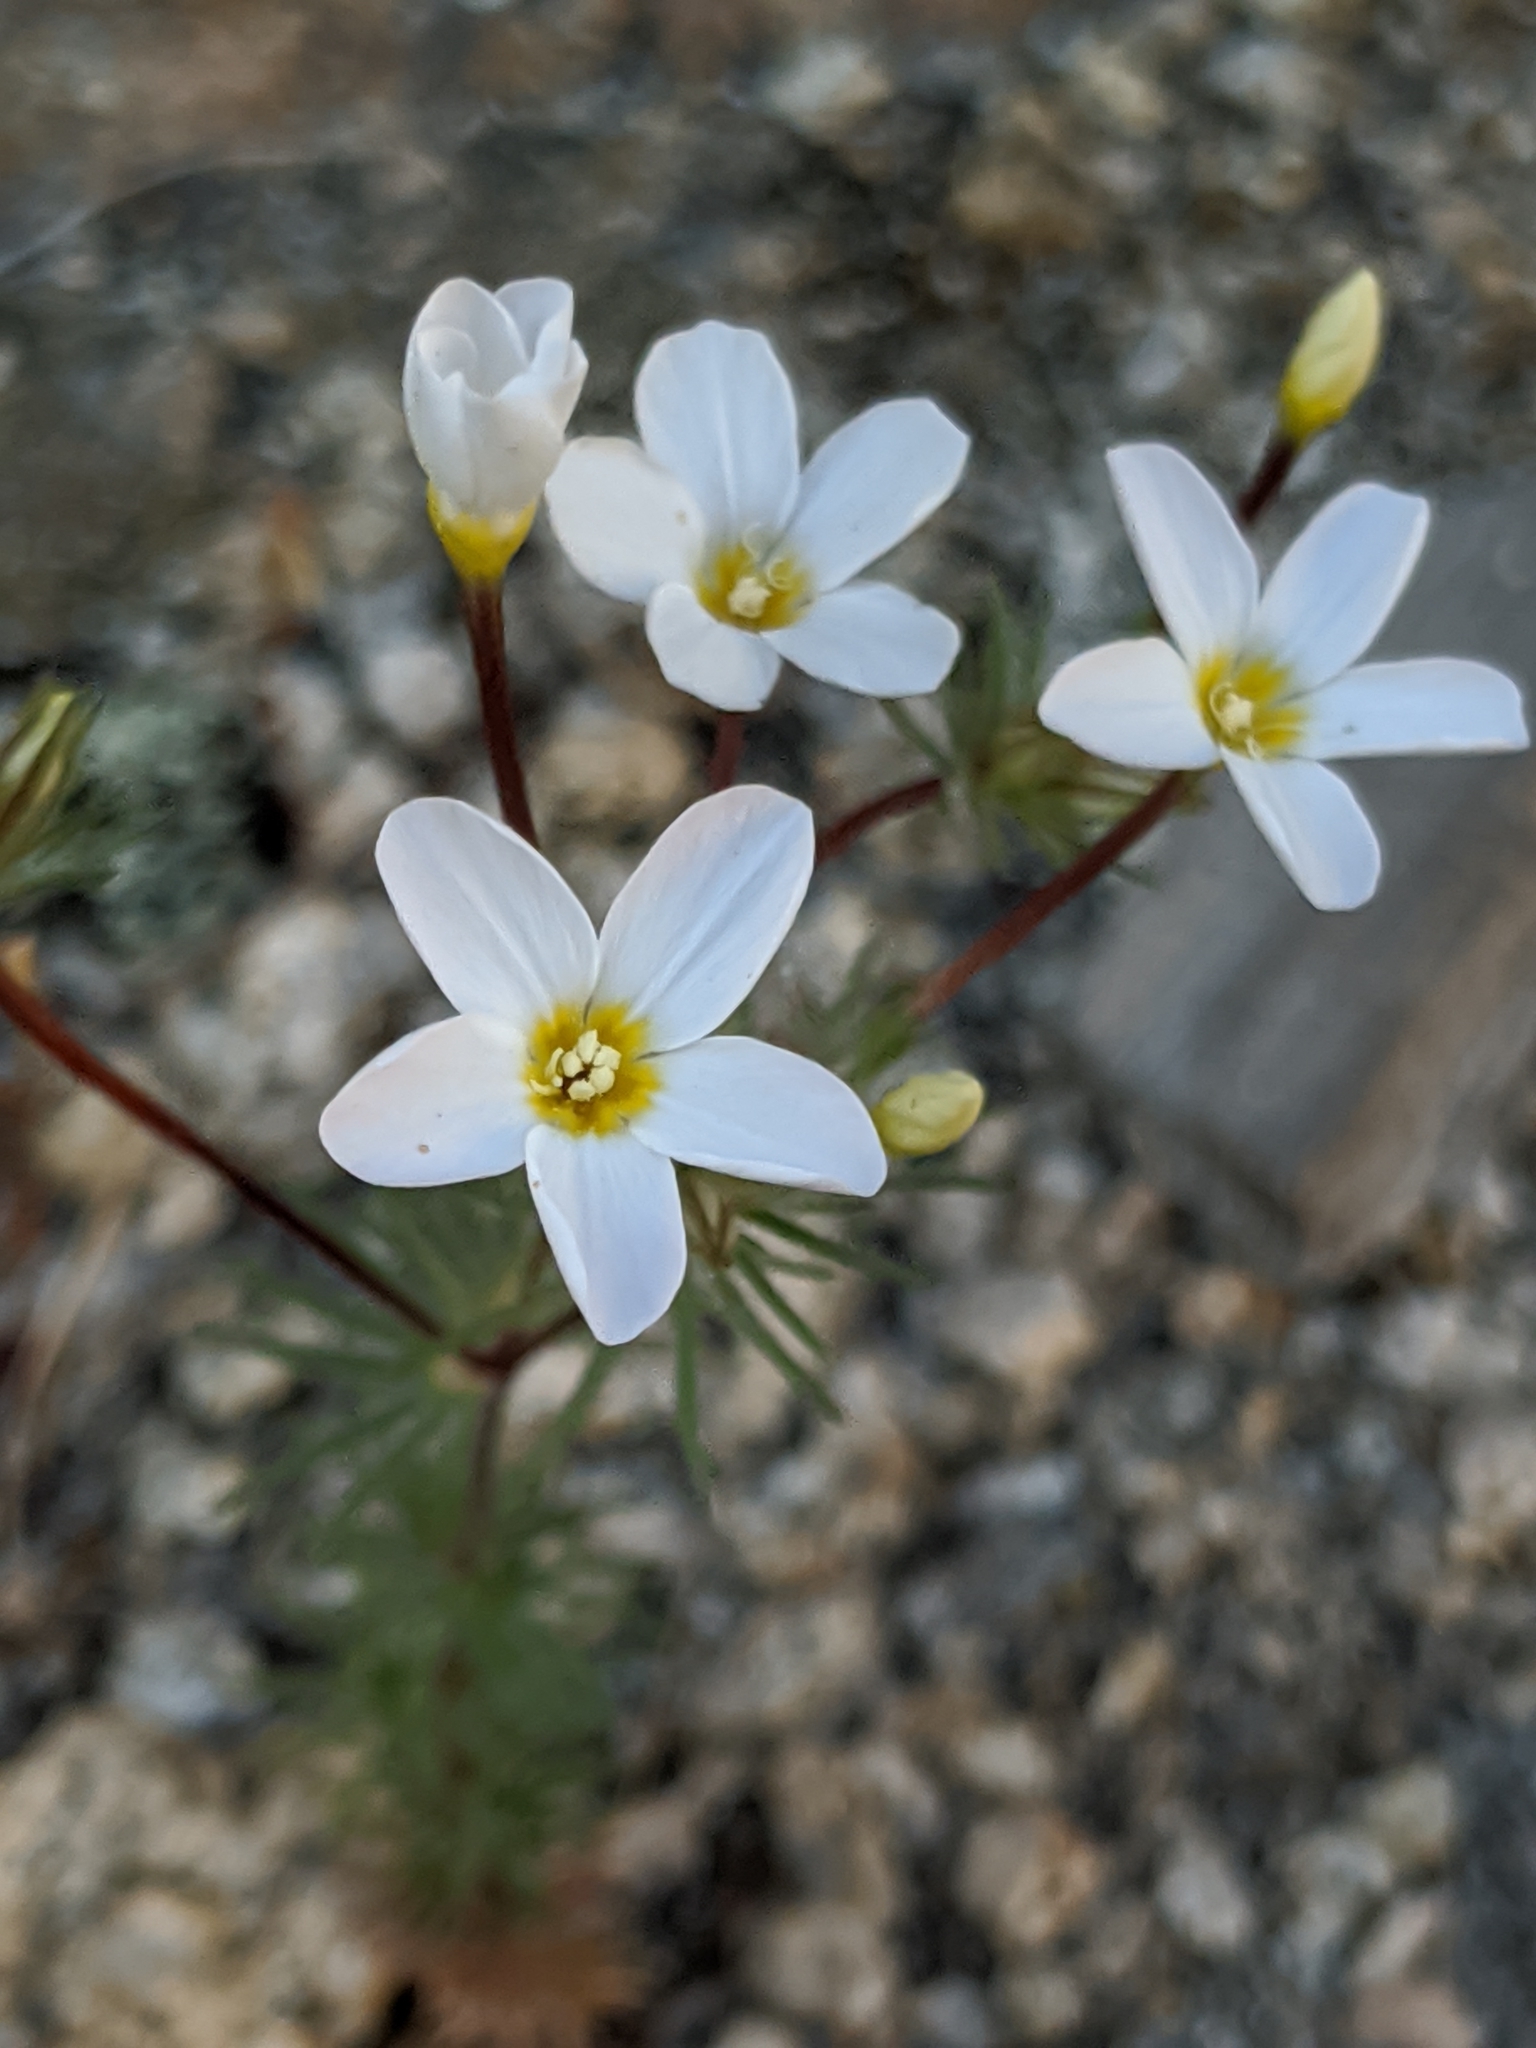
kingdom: Plantae
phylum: Tracheophyta
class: Magnoliopsida
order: Ericales
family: Polemoniaceae
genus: Leptosiphon
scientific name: Leptosiphon breviculus
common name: Mojave linanthus
